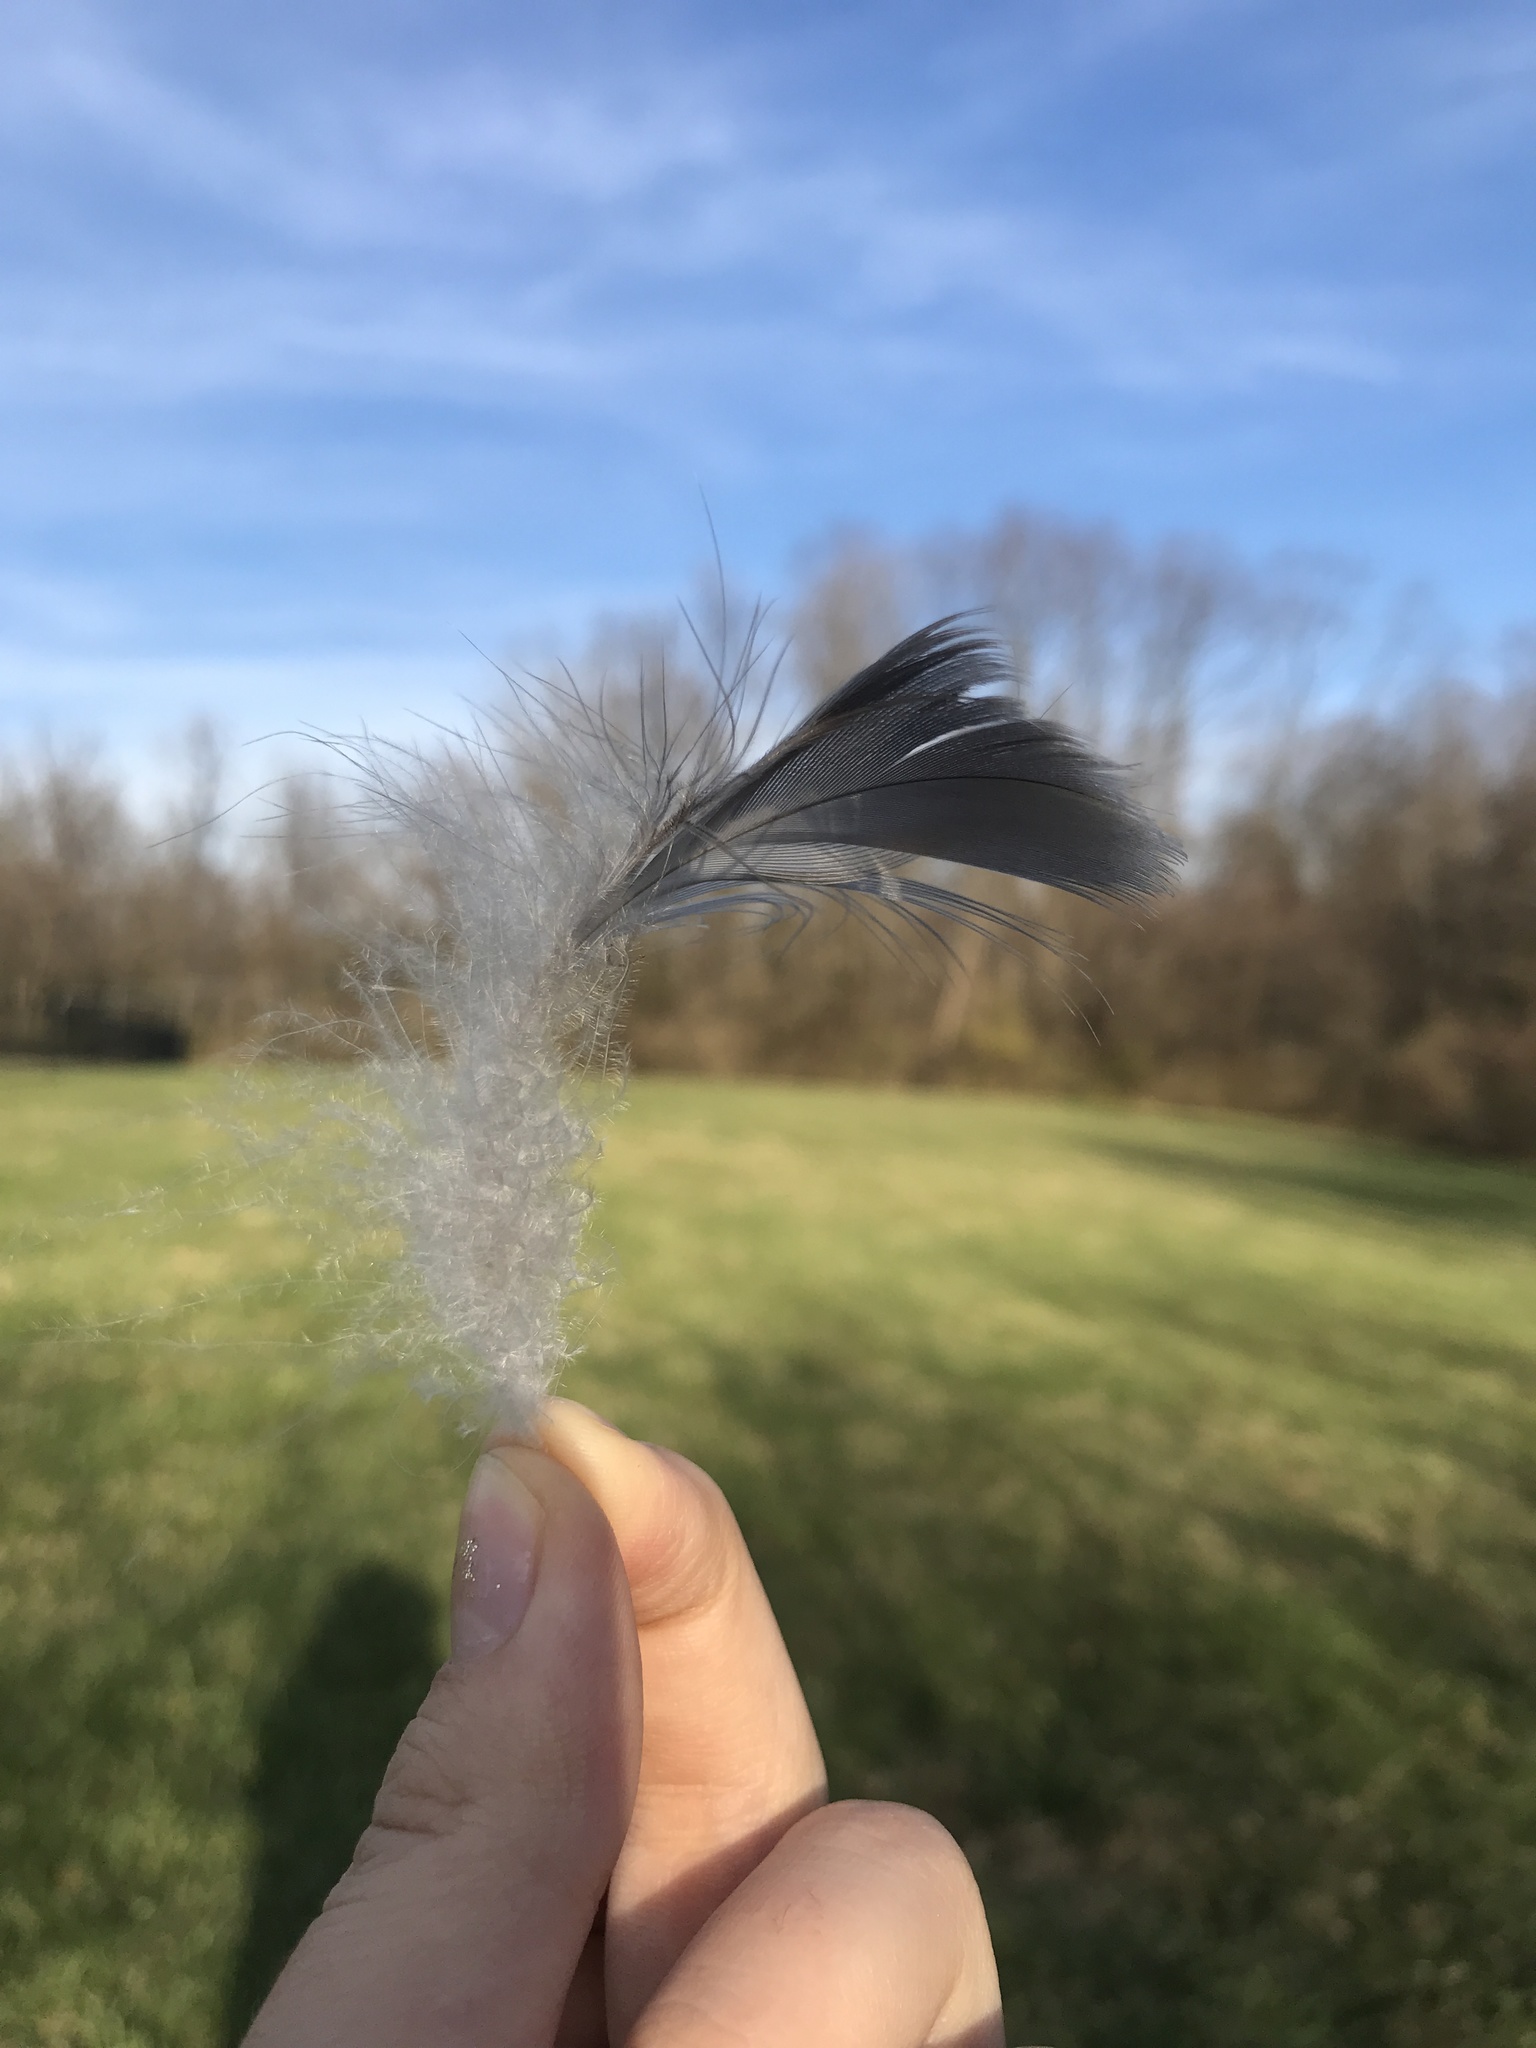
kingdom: Animalia
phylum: Chordata
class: Aves
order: Anseriformes
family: Anatidae
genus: Branta
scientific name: Branta canadensis
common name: Canada goose
